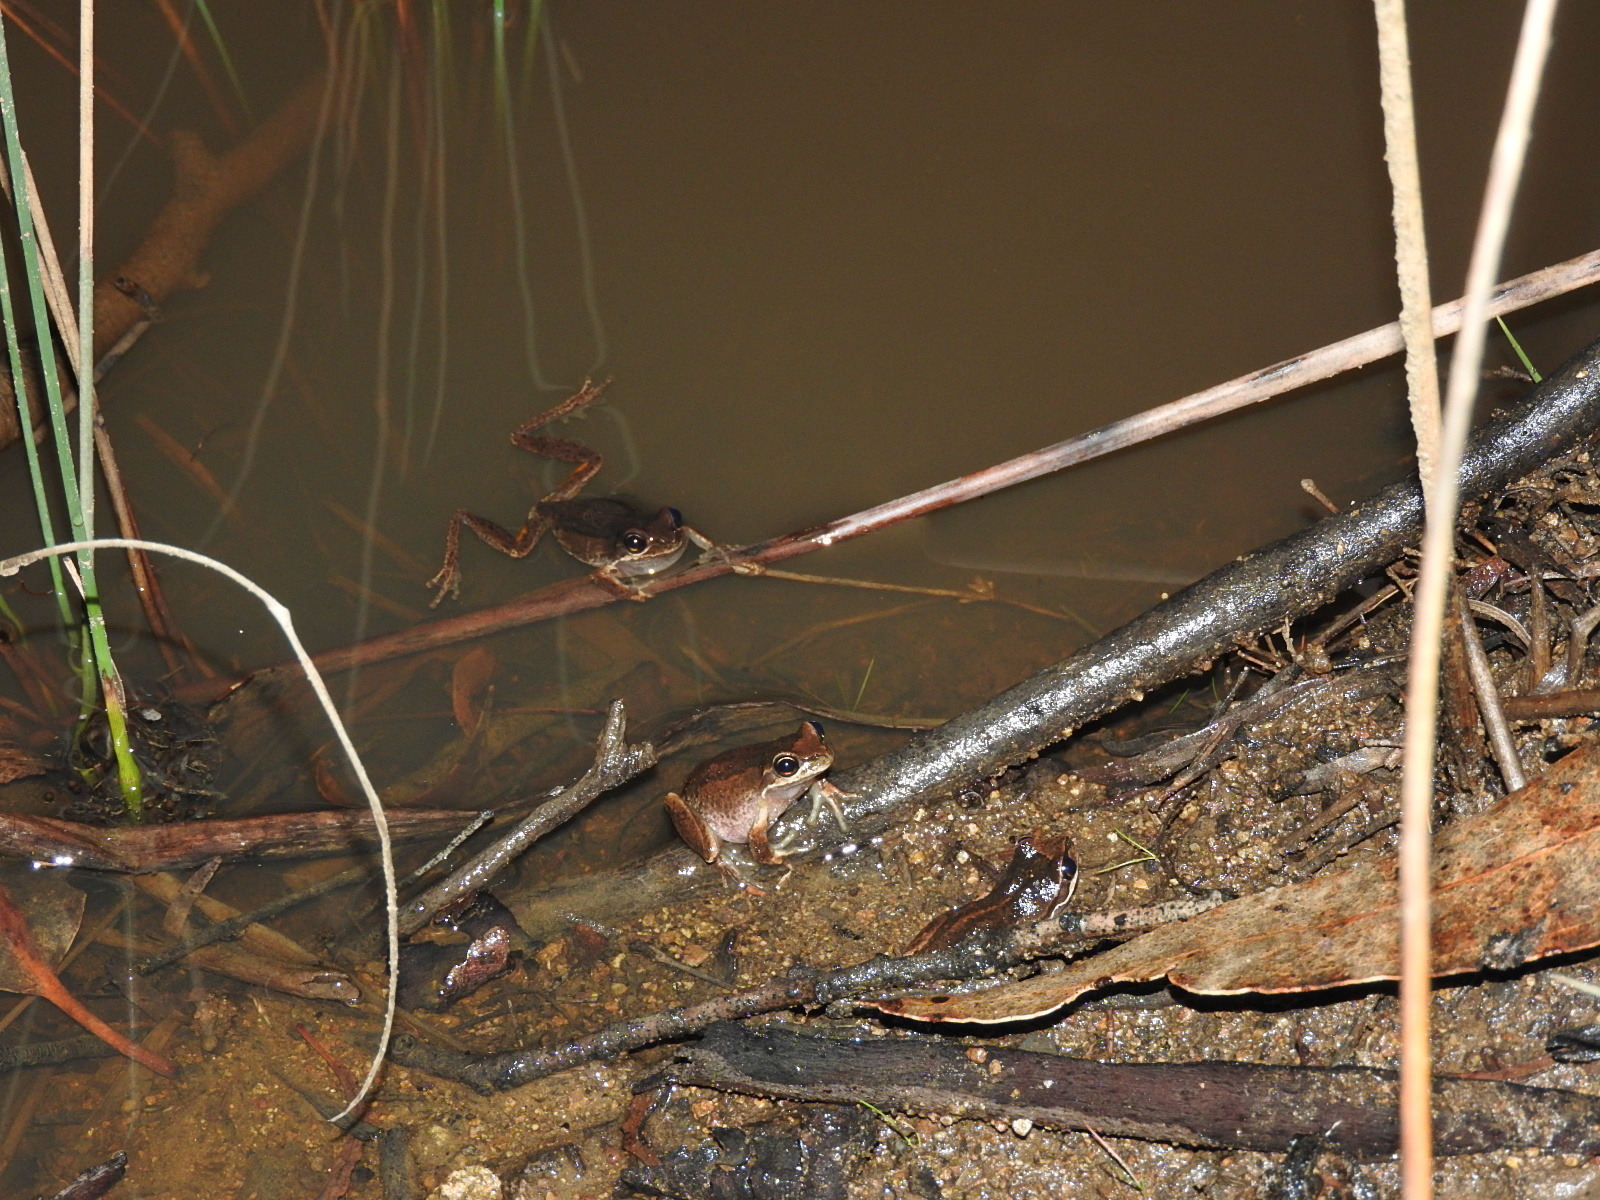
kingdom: Animalia
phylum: Chordata
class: Amphibia
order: Anura
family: Pelodryadidae
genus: Litoria
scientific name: Litoria ewingii
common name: Southern brown tree frog
